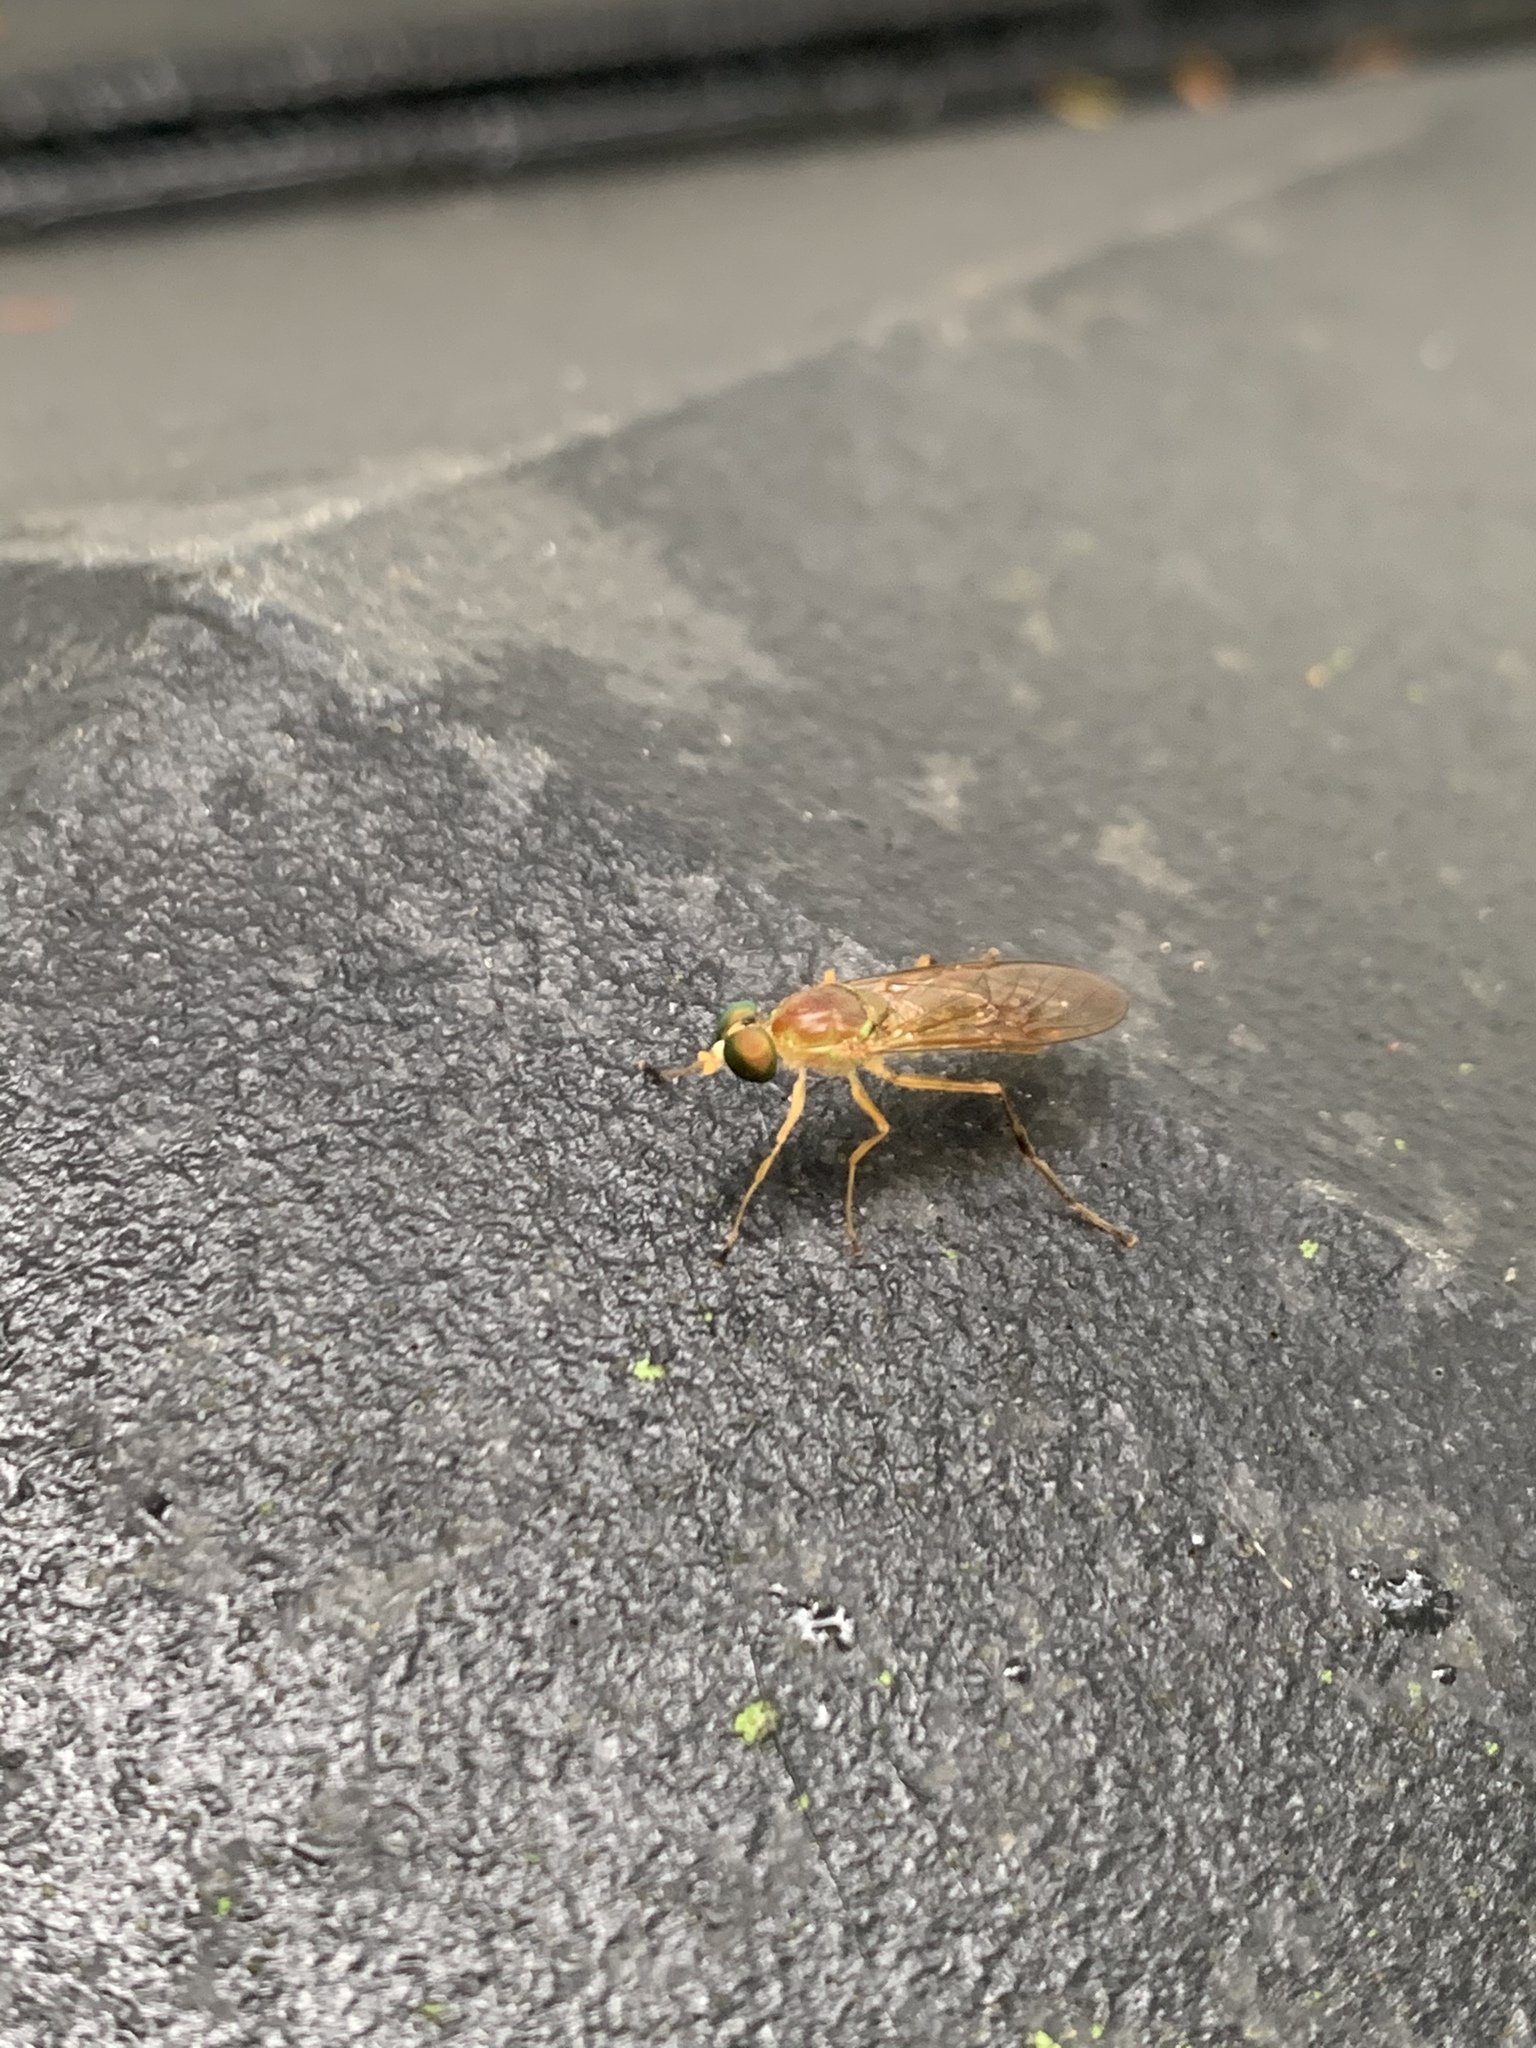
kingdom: Animalia
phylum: Arthropoda
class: Insecta
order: Diptera
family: Stratiomyidae
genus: Ptecticus
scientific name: Ptecticus trivittatus
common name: Compost fly
